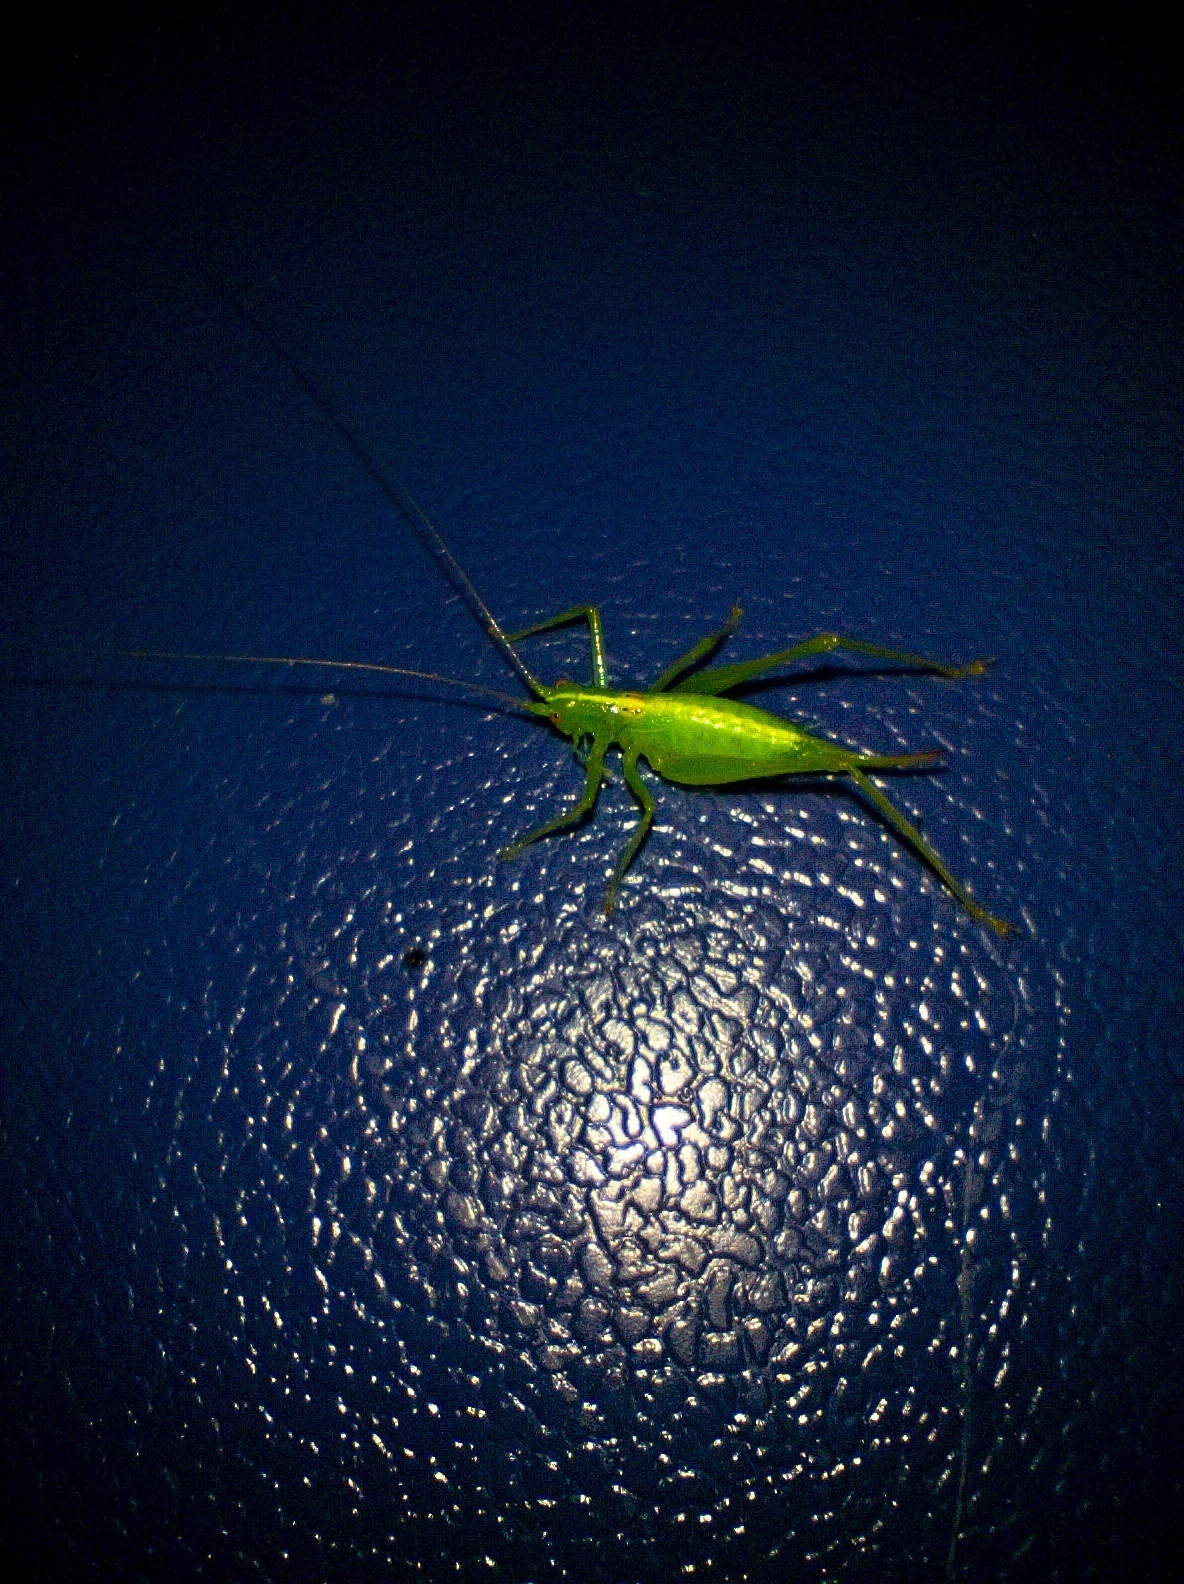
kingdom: Animalia
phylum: Arthropoda
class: Insecta
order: Orthoptera
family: Tettigoniidae
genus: Meconema
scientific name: Meconema meridionale
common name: Southern oak bush-cricket
